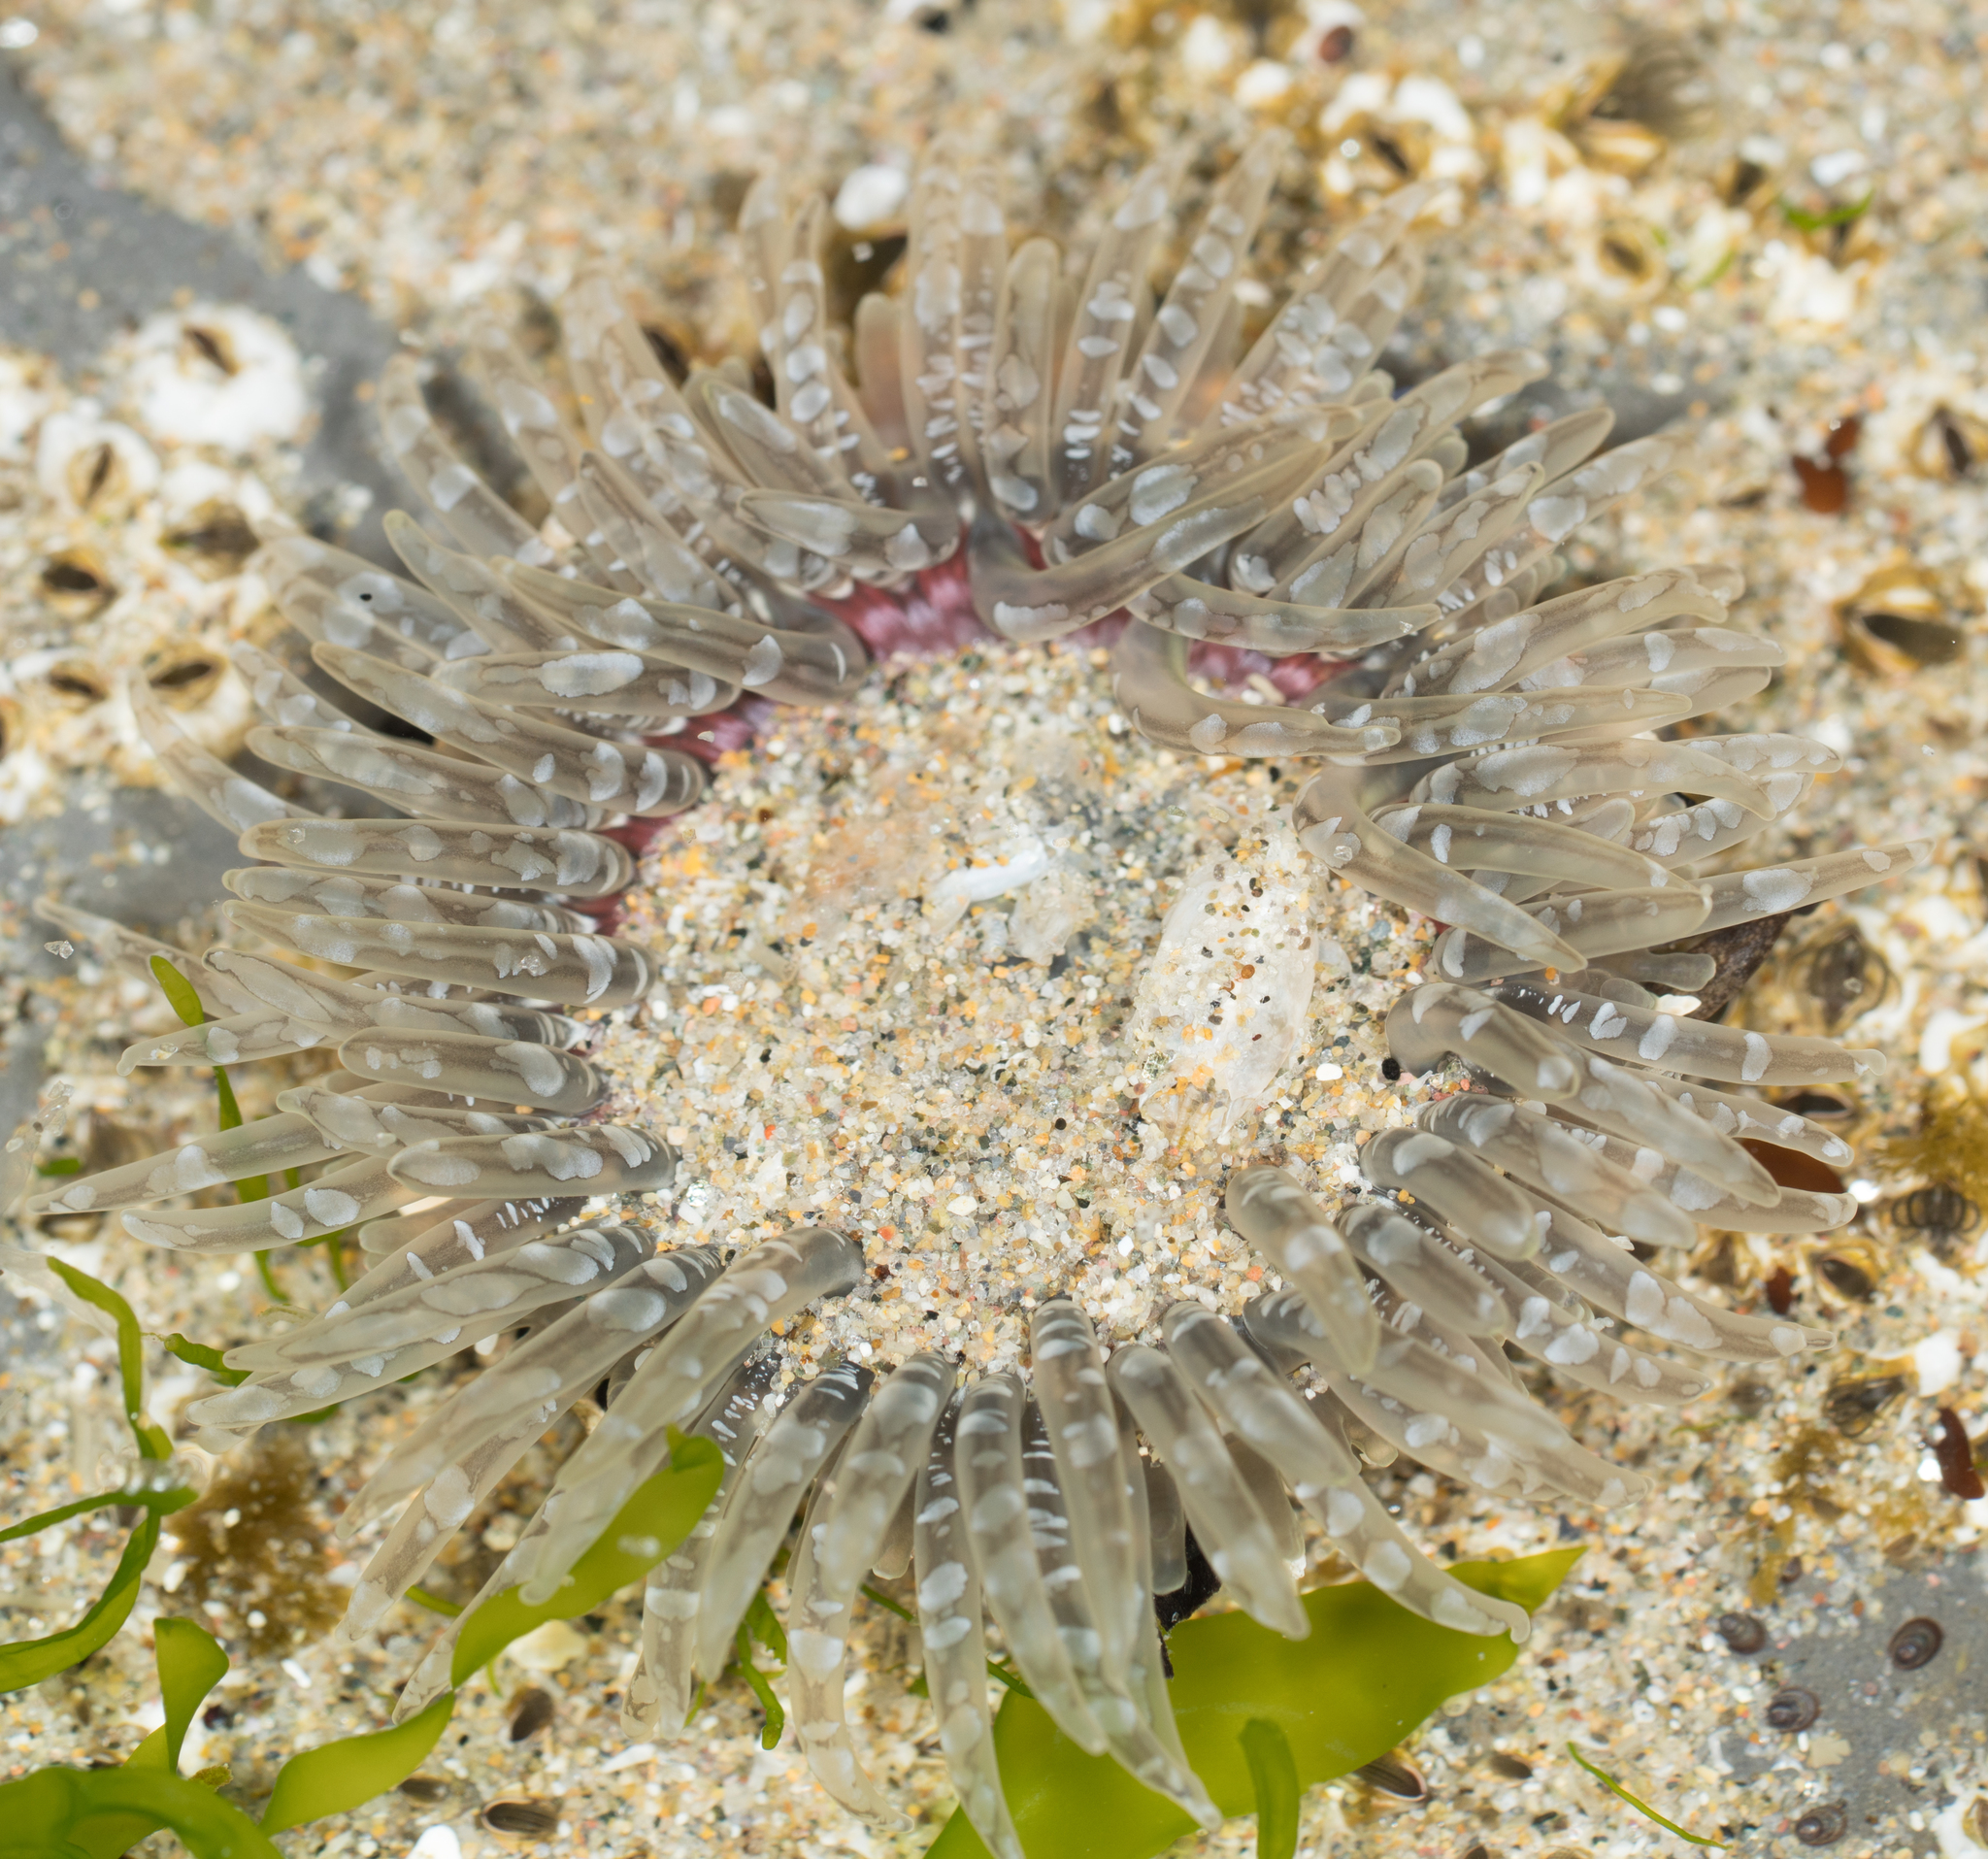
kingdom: Animalia
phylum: Cnidaria
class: Anthozoa
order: Actiniaria
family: Actiniidae
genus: Anthopleura
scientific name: Anthopleura artemisia
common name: Buried sea anemone
